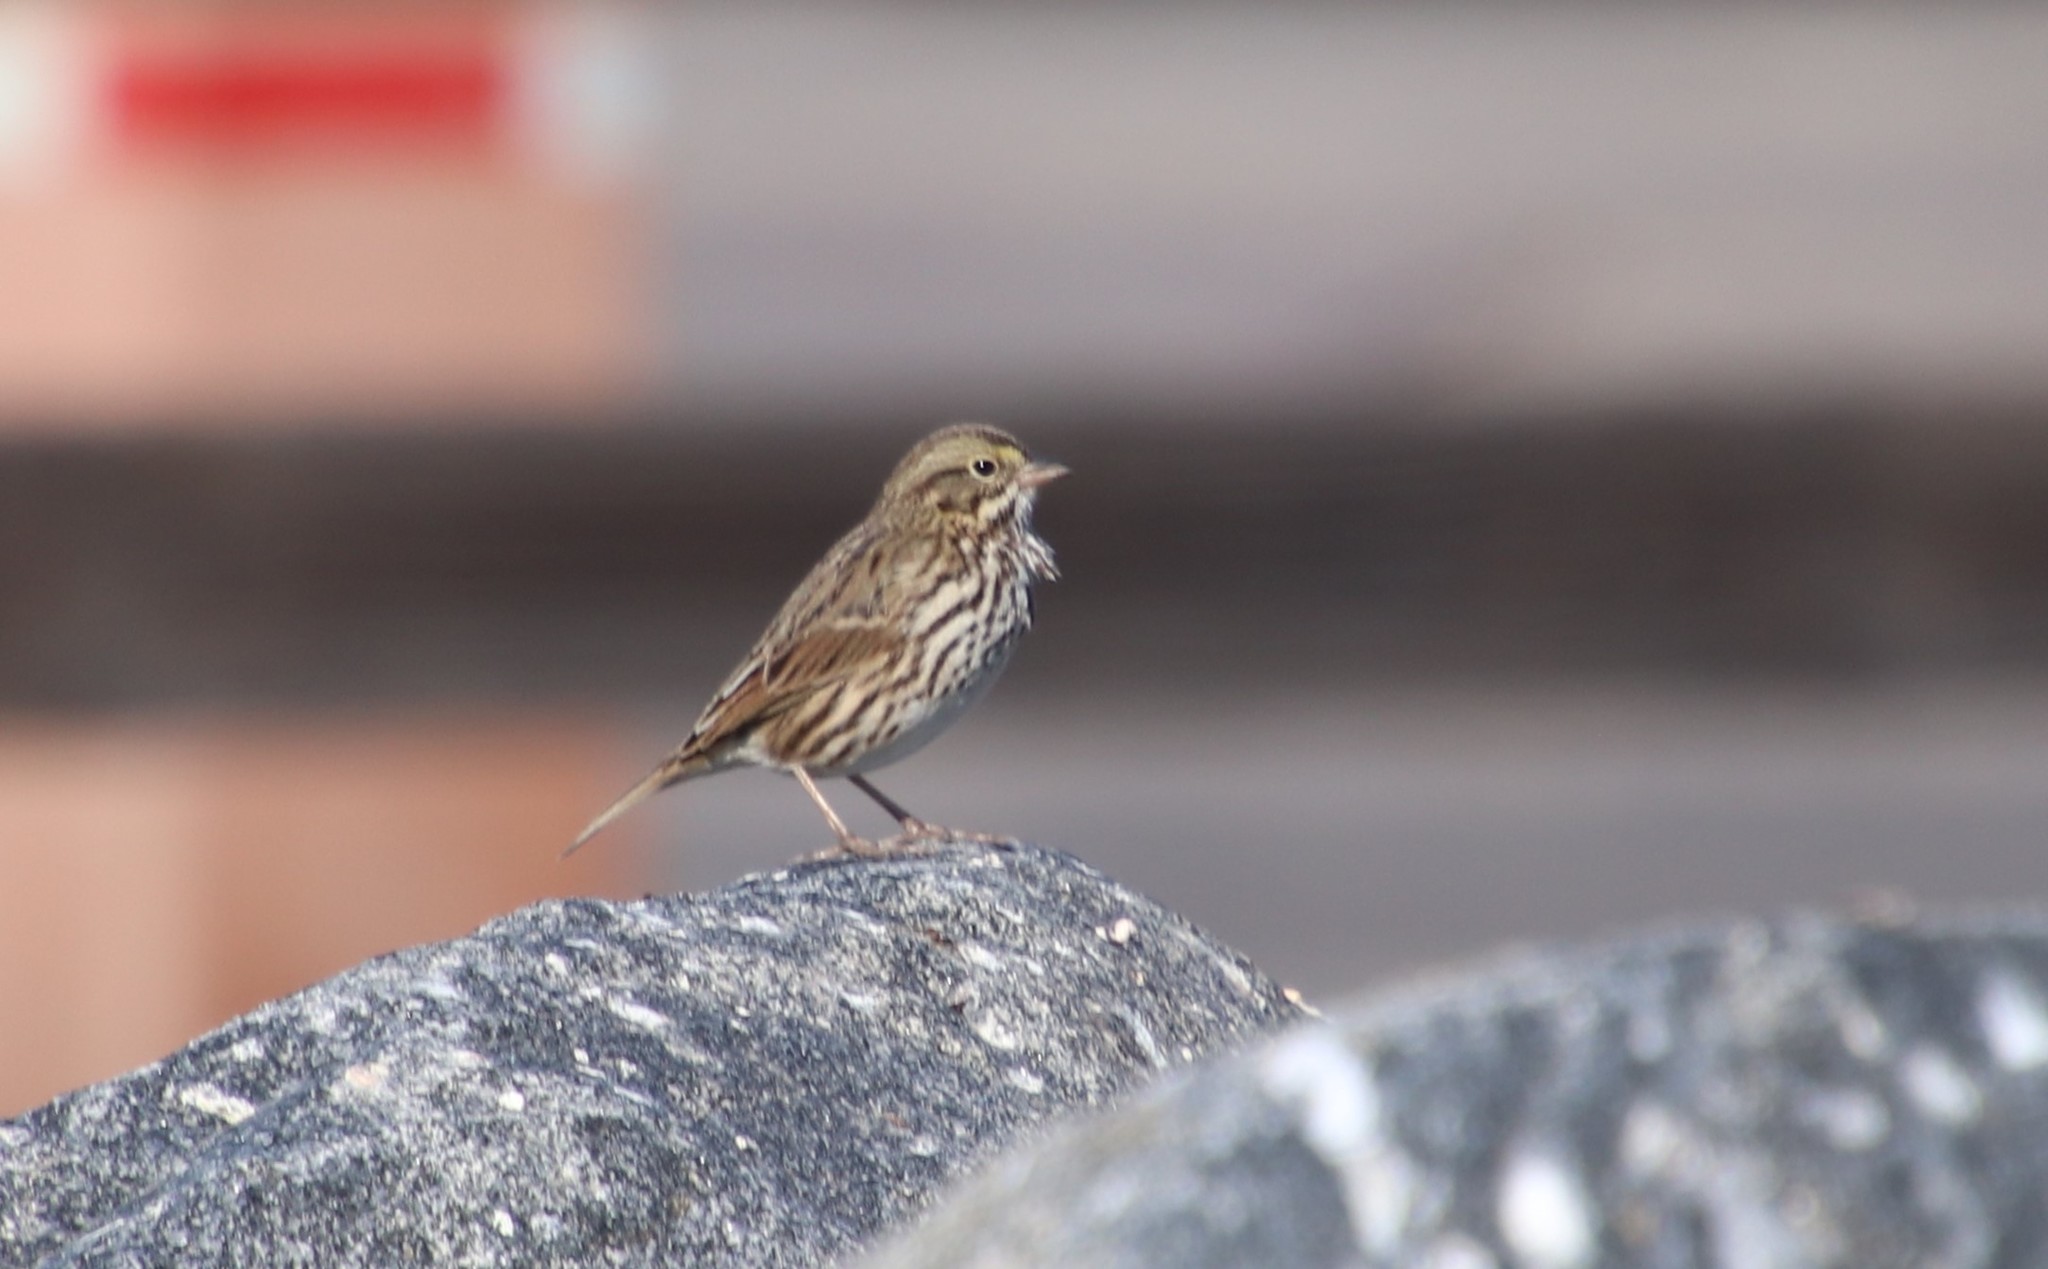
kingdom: Animalia
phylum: Chordata
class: Aves
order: Passeriformes
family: Passerellidae
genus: Passerculus
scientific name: Passerculus sandwichensis
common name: Savannah sparrow
